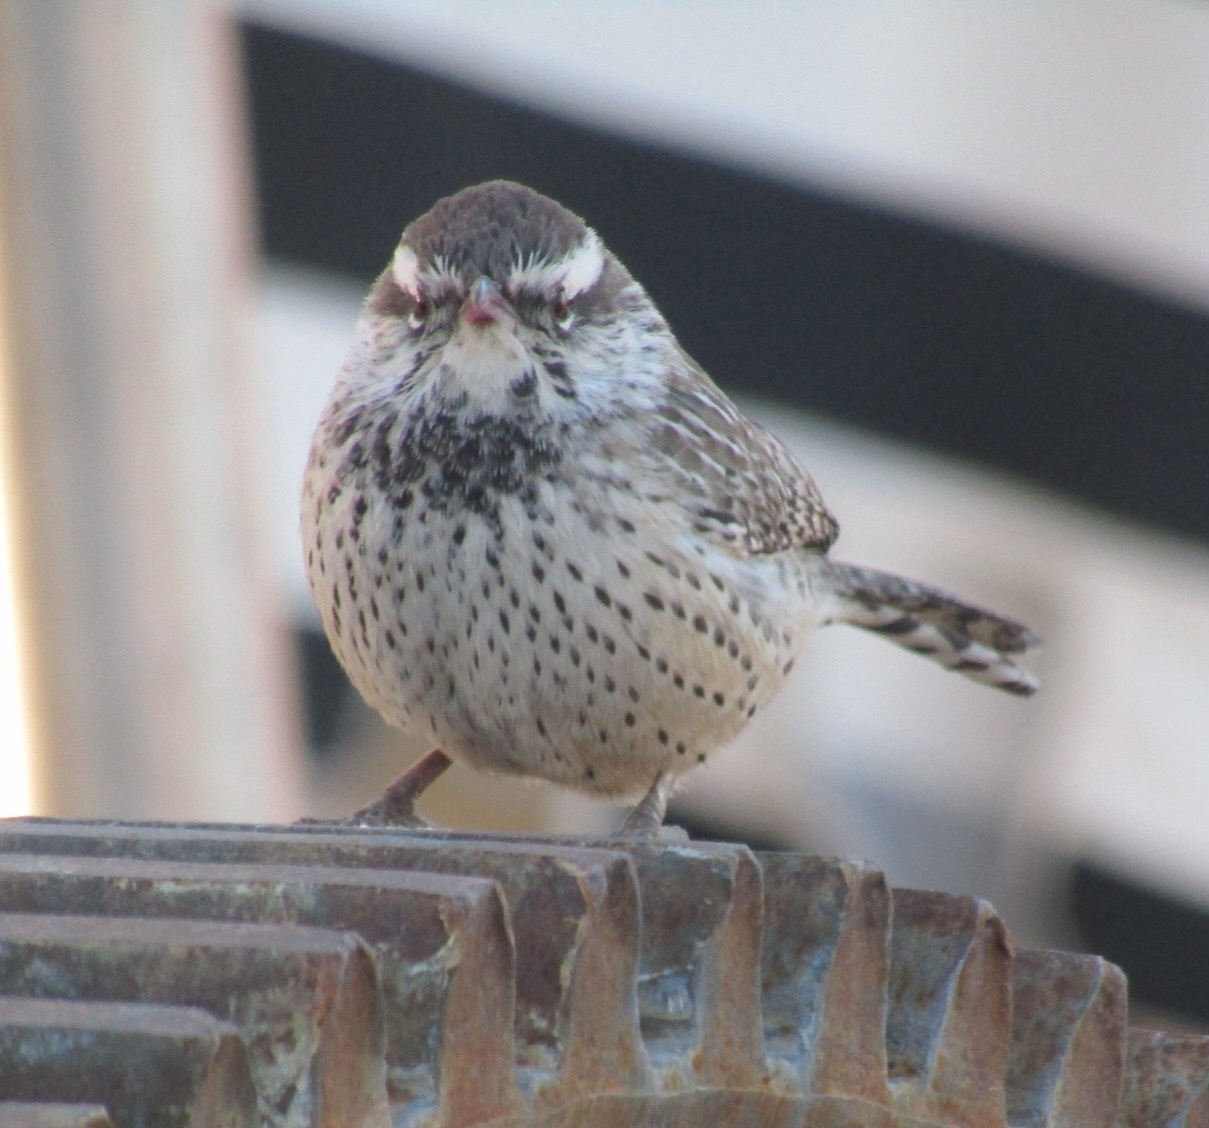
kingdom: Animalia
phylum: Chordata
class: Aves
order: Passeriformes
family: Troglodytidae
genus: Campylorhynchus
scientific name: Campylorhynchus brunneicapillus
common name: Cactus wren
